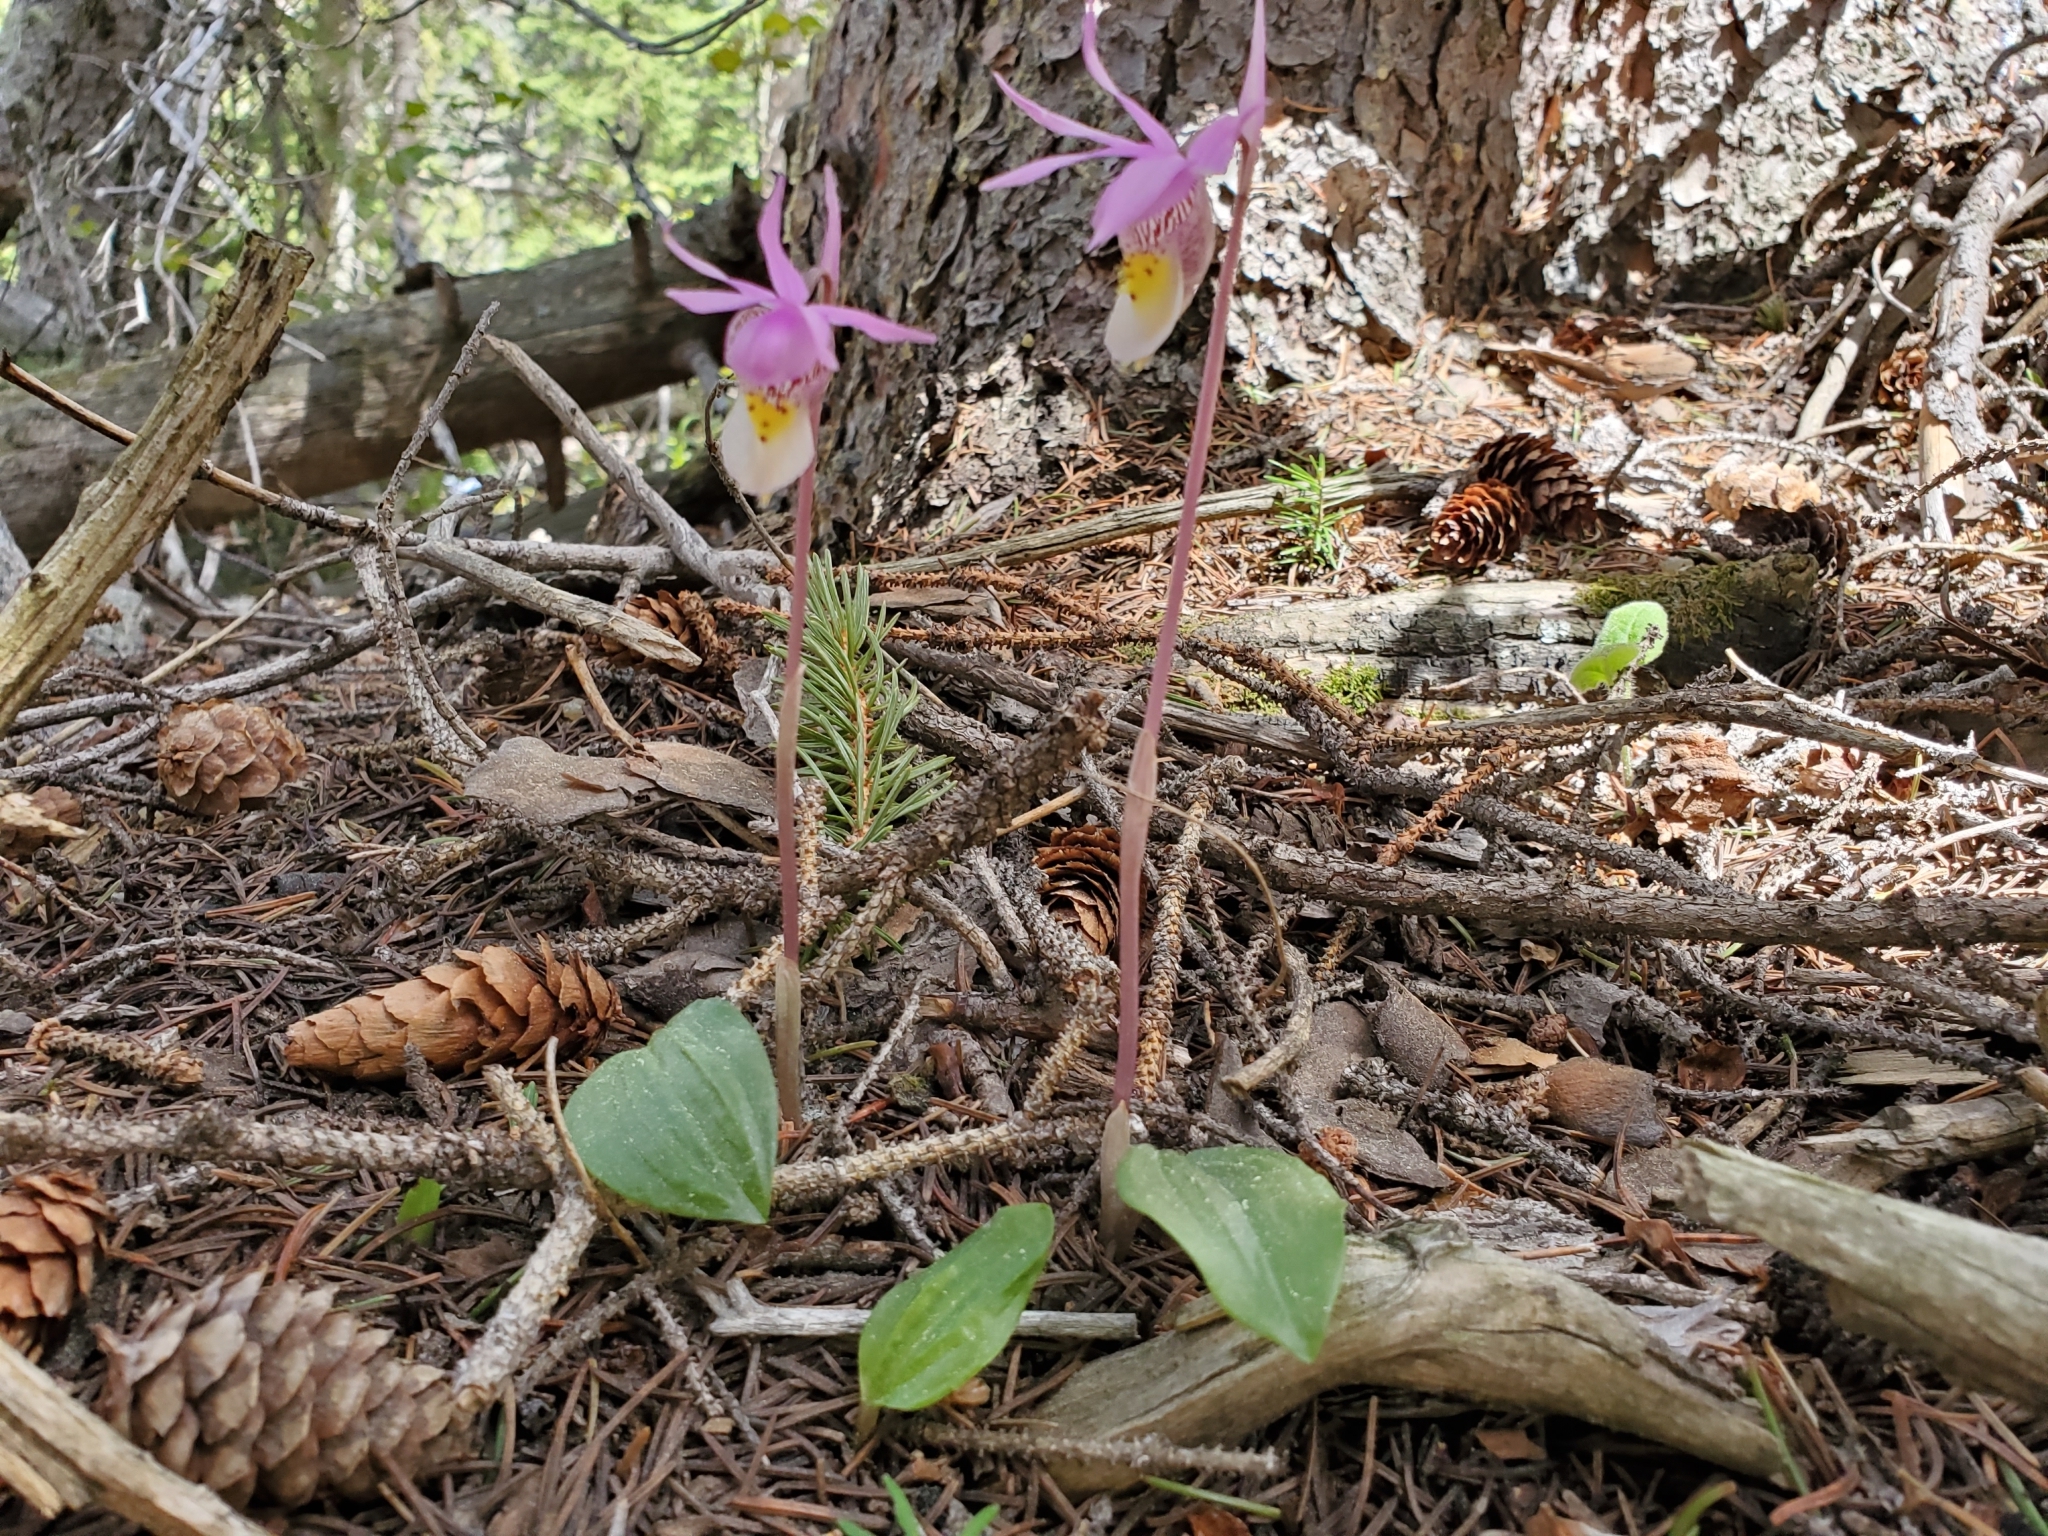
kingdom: Plantae
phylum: Tracheophyta
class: Liliopsida
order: Asparagales
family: Orchidaceae
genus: Calypso
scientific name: Calypso bulbosa
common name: Calypso
